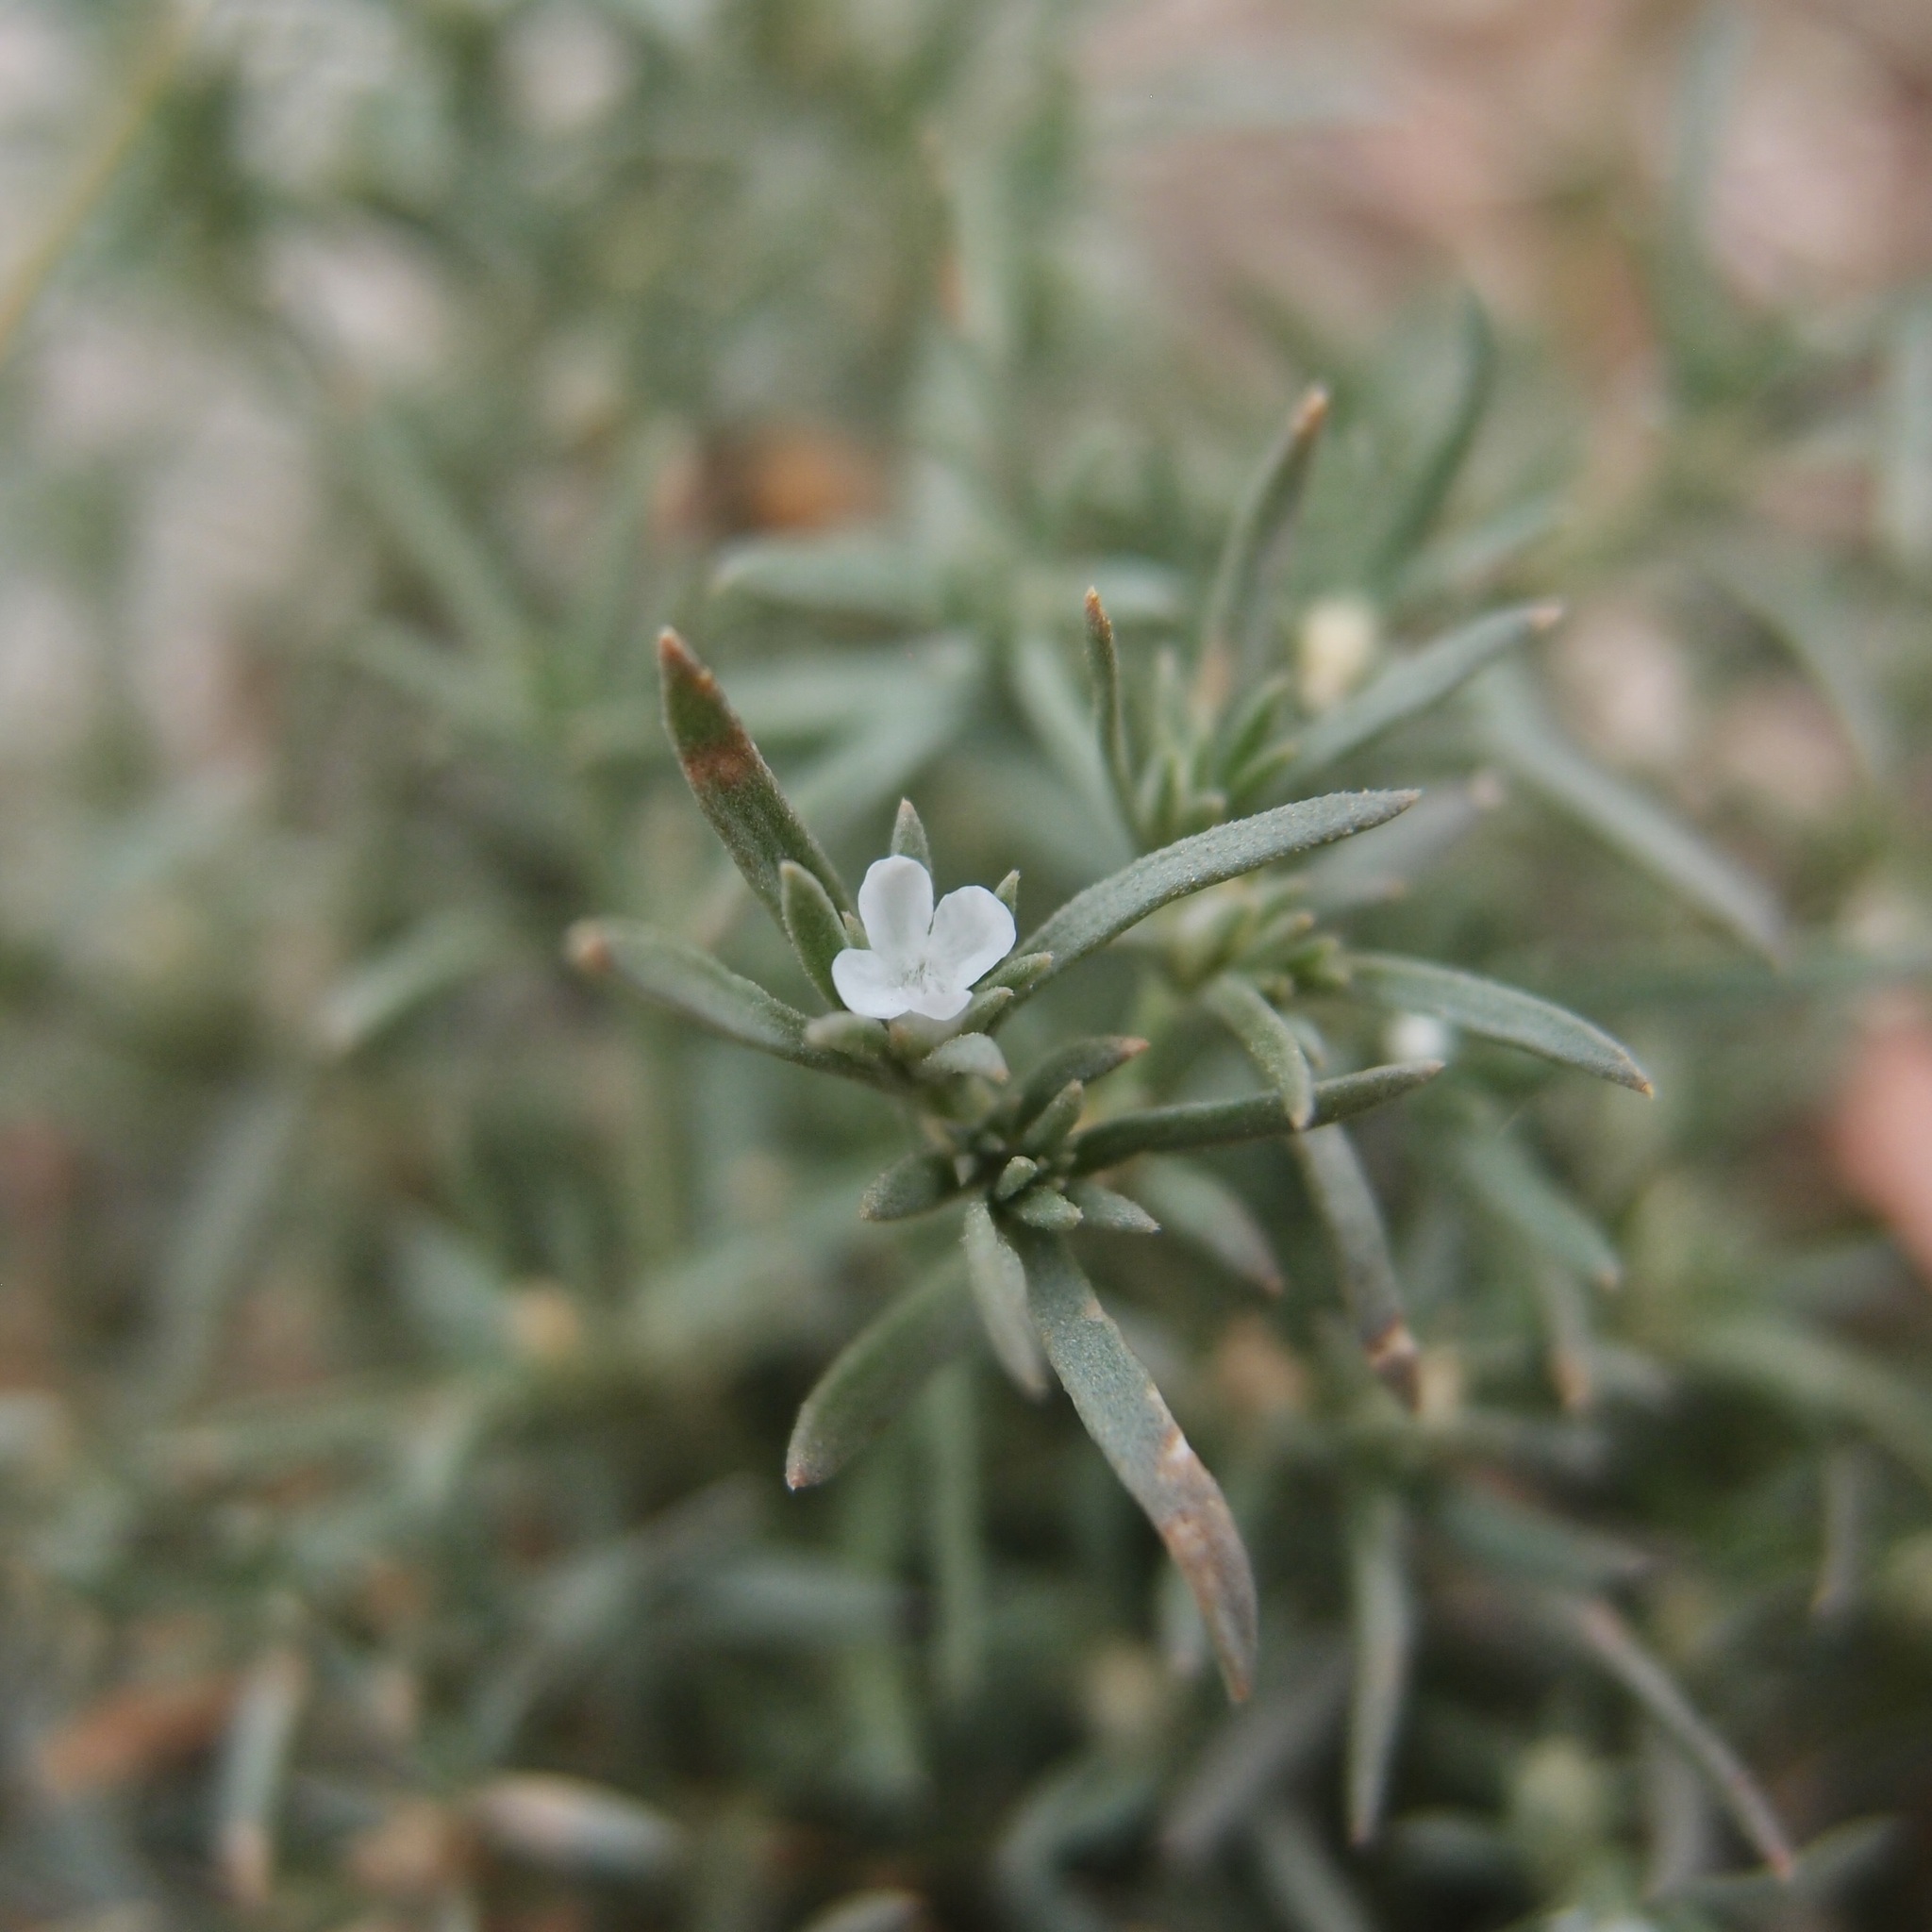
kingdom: Plantae
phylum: Tracheophyta
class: Magnoliopsida
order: Lamiales
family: Tetrachondraceae
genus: Polypremum
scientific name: Polypremum procumbens
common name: Juniper-leaf
